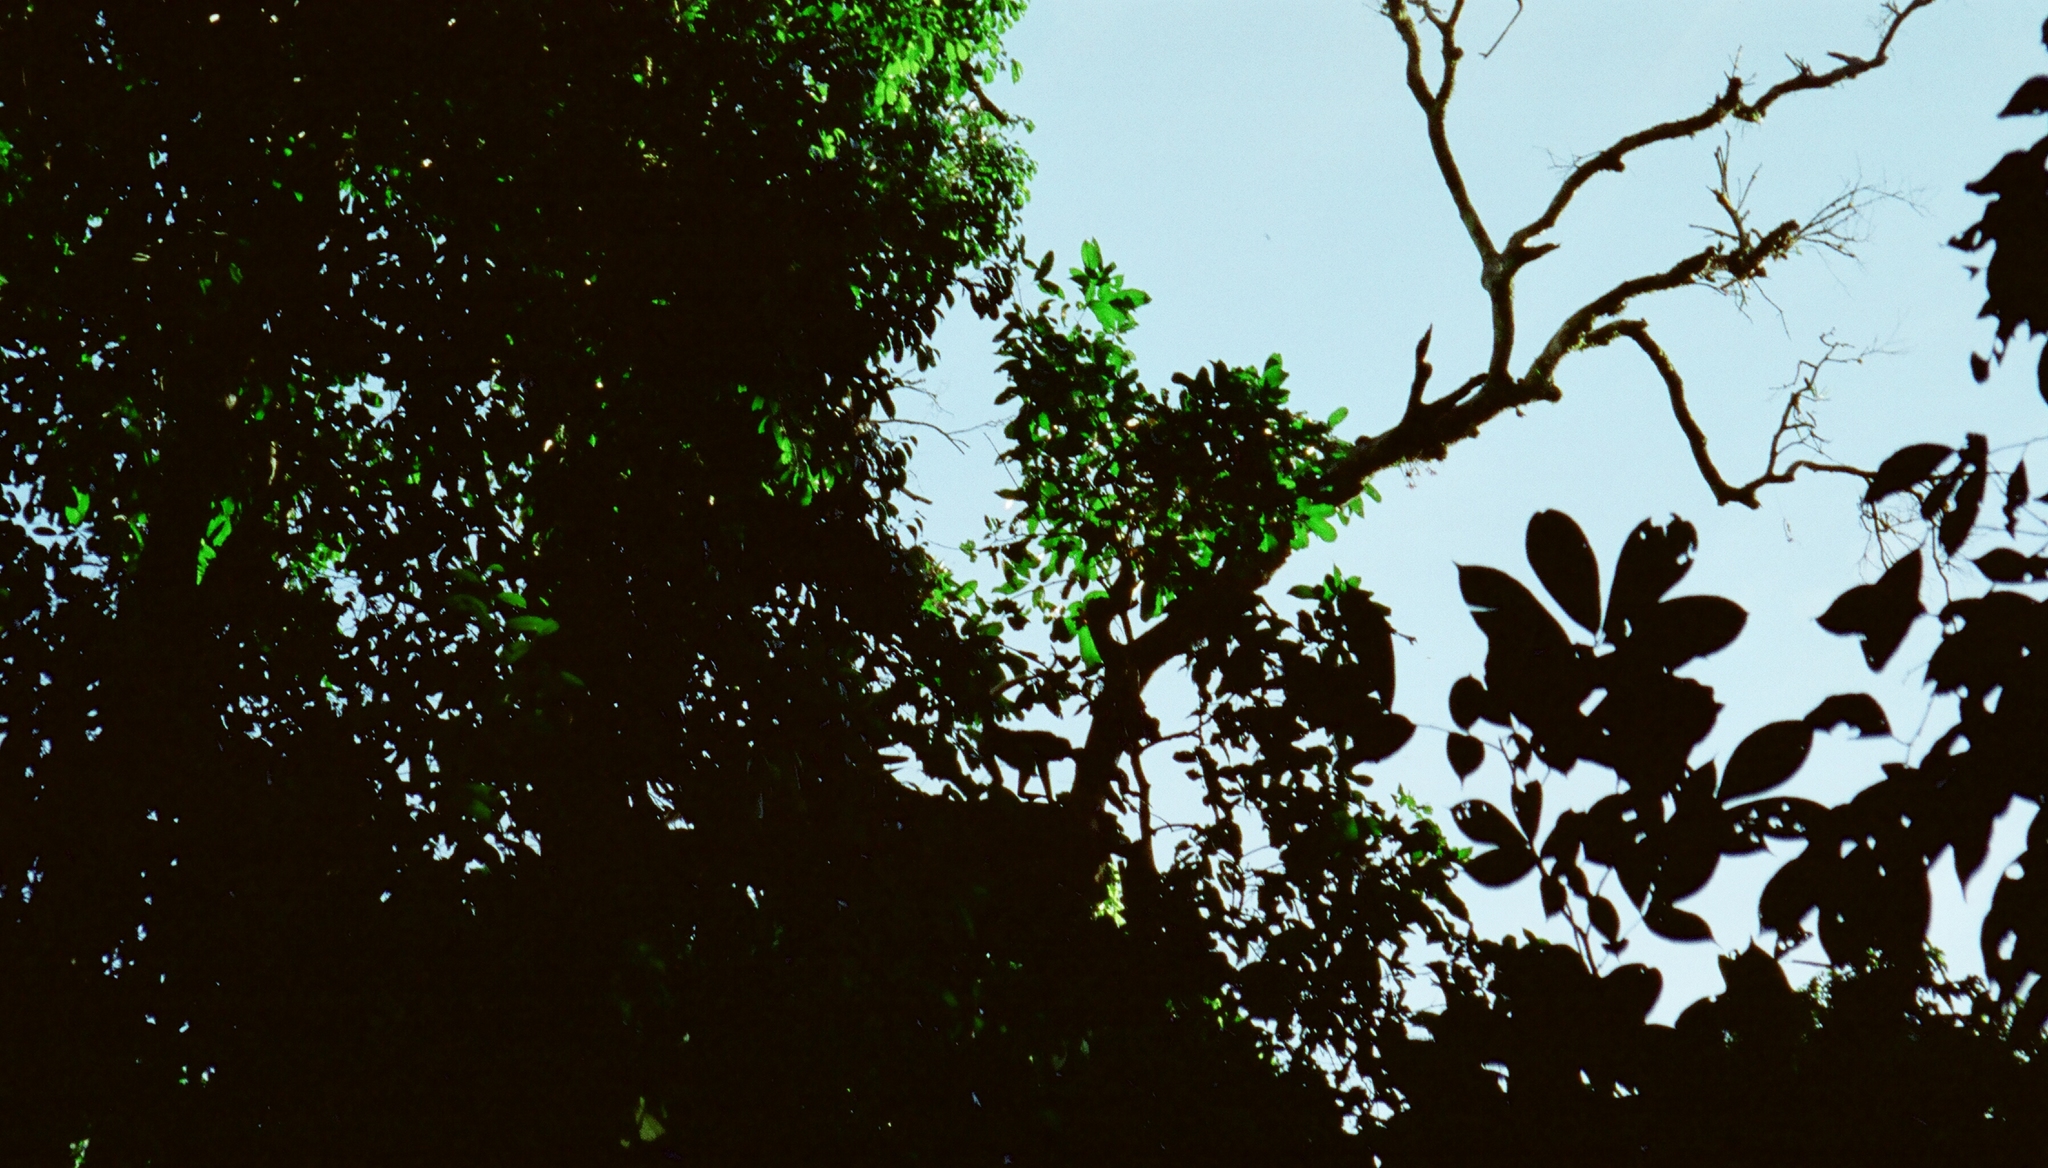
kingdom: Animalia
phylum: Chordata
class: Mammalia
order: Primates
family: Atelidae
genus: Ateles
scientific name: Ateles belzebuth
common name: White-fronted spider monkey
